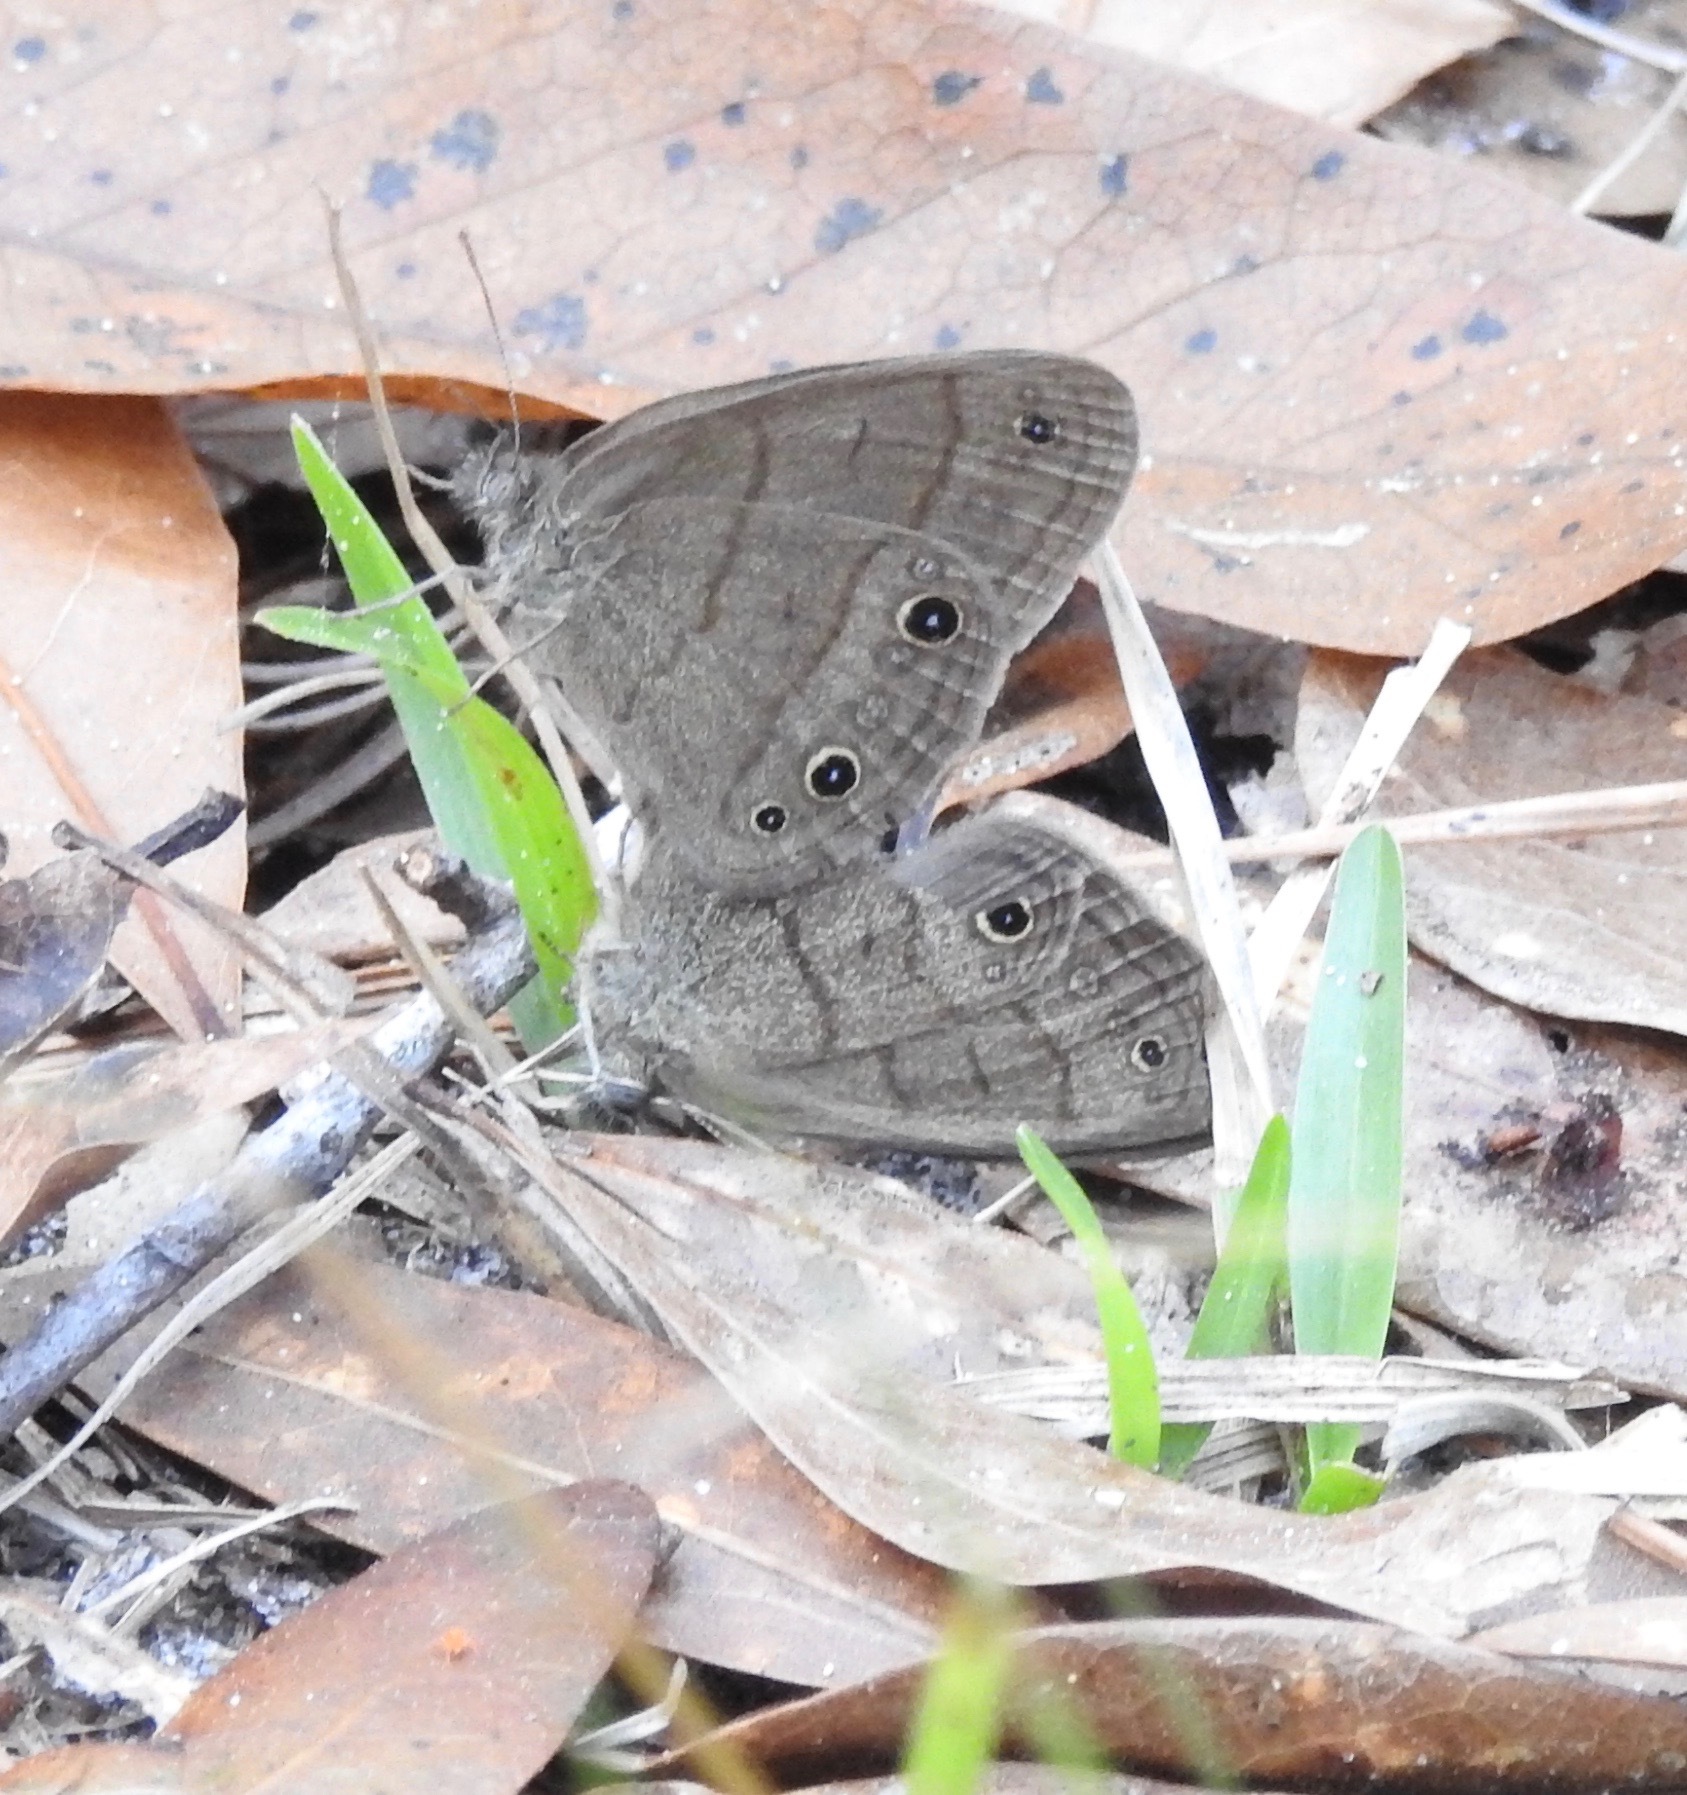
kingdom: Animalia
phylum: Arthropoda
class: Insecta
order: Lepidoptera
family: Nymphalidae
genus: Hermeuptychia
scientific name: Hermeuptychia hermes
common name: Hermes satyr
